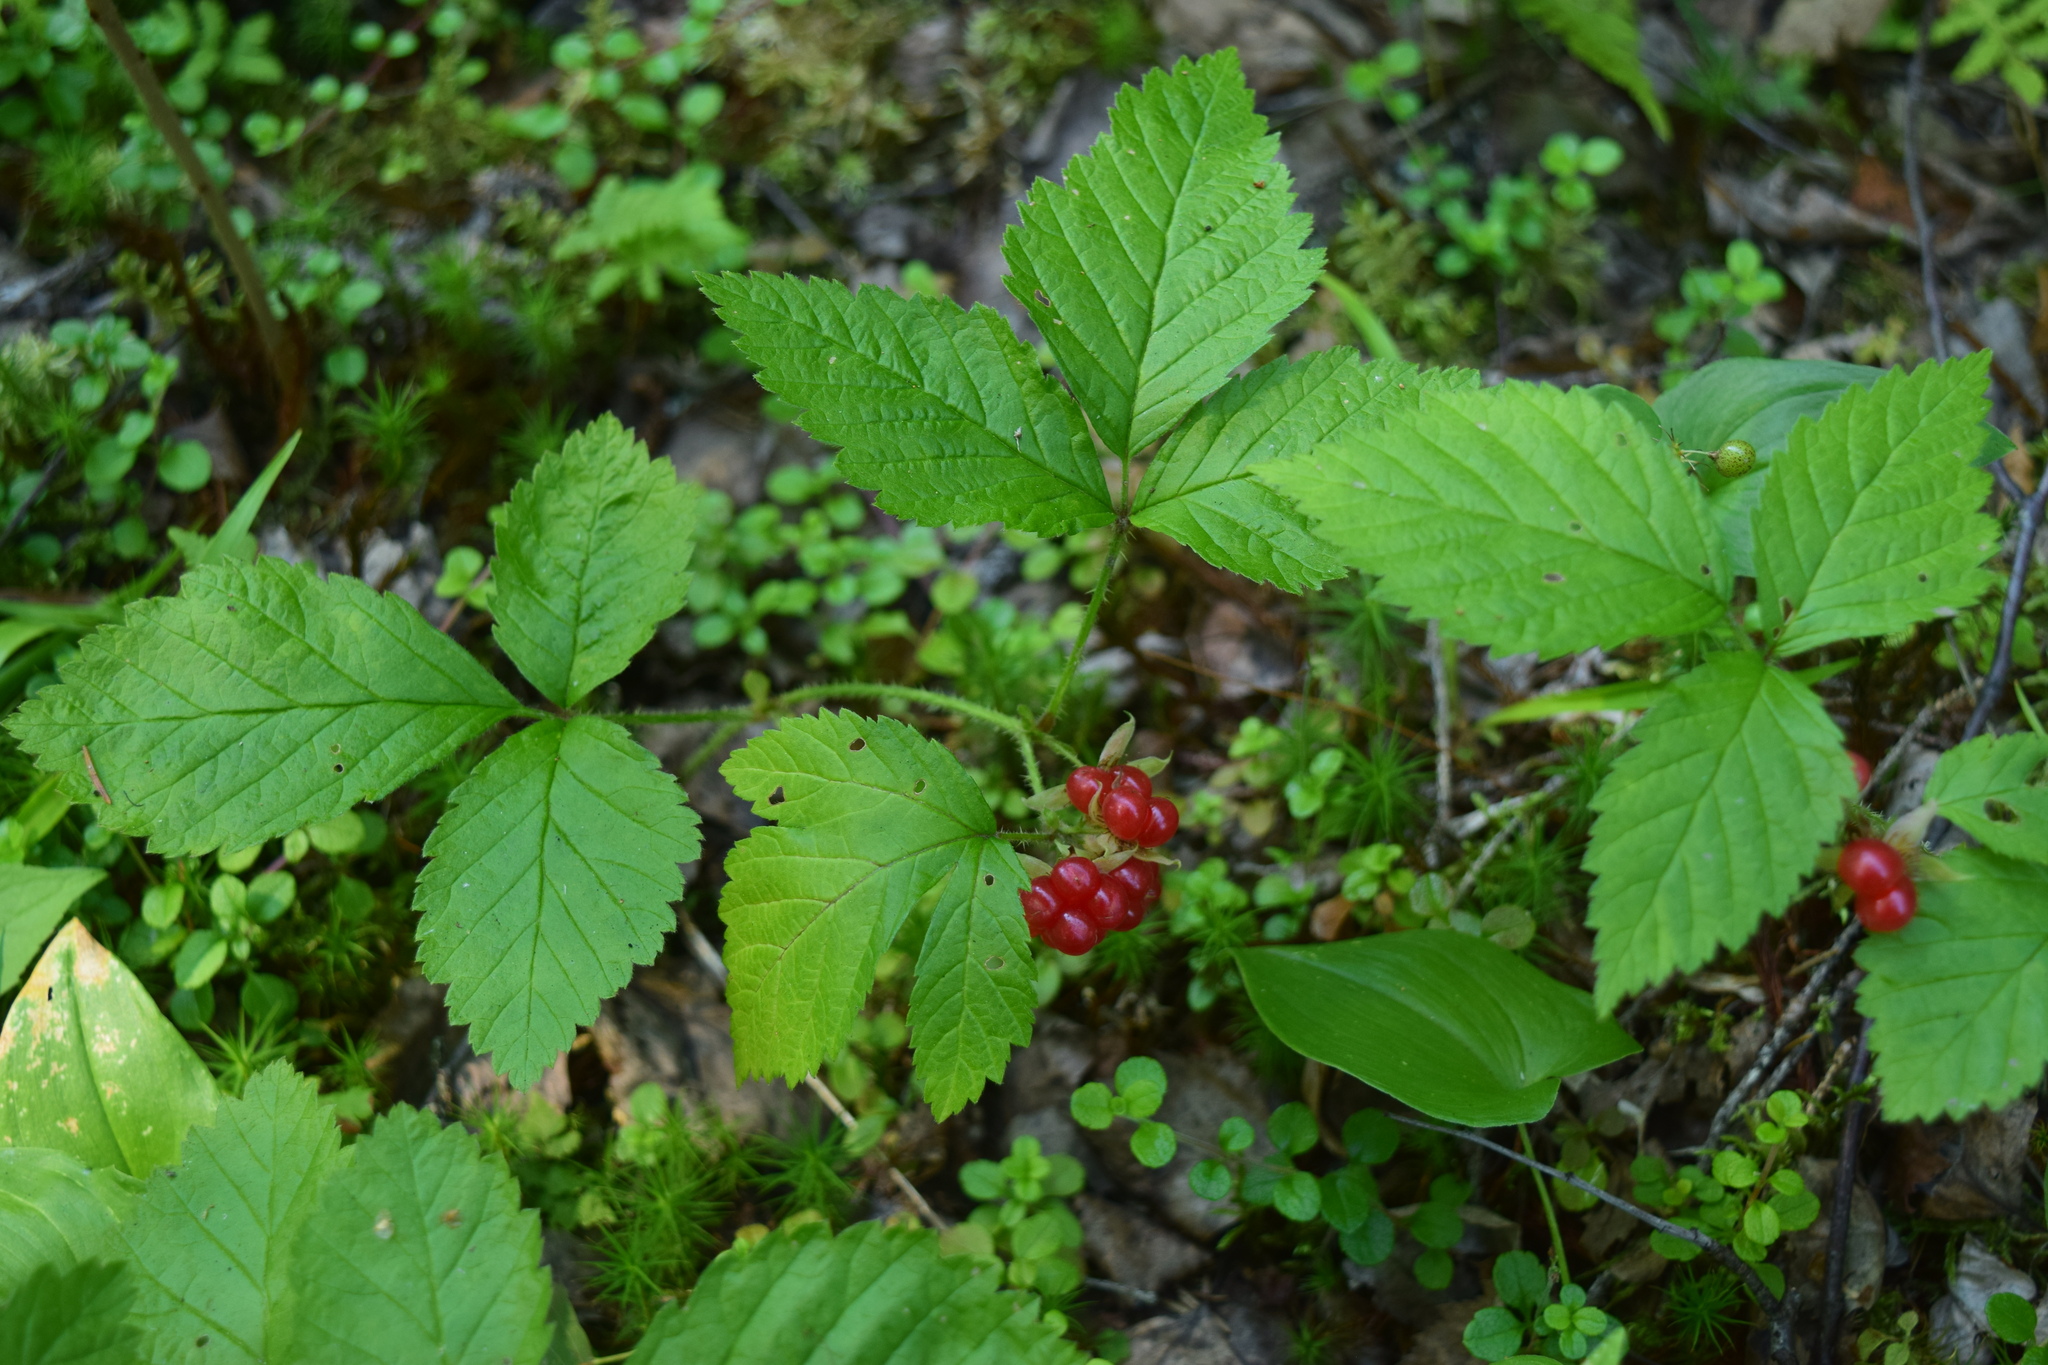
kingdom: Plantae
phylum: Tracheophyta
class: Magnoliopsida
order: Rosales
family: Rosaceae
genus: Rubus
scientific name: Rubus saxatilis
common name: Stone bramble
